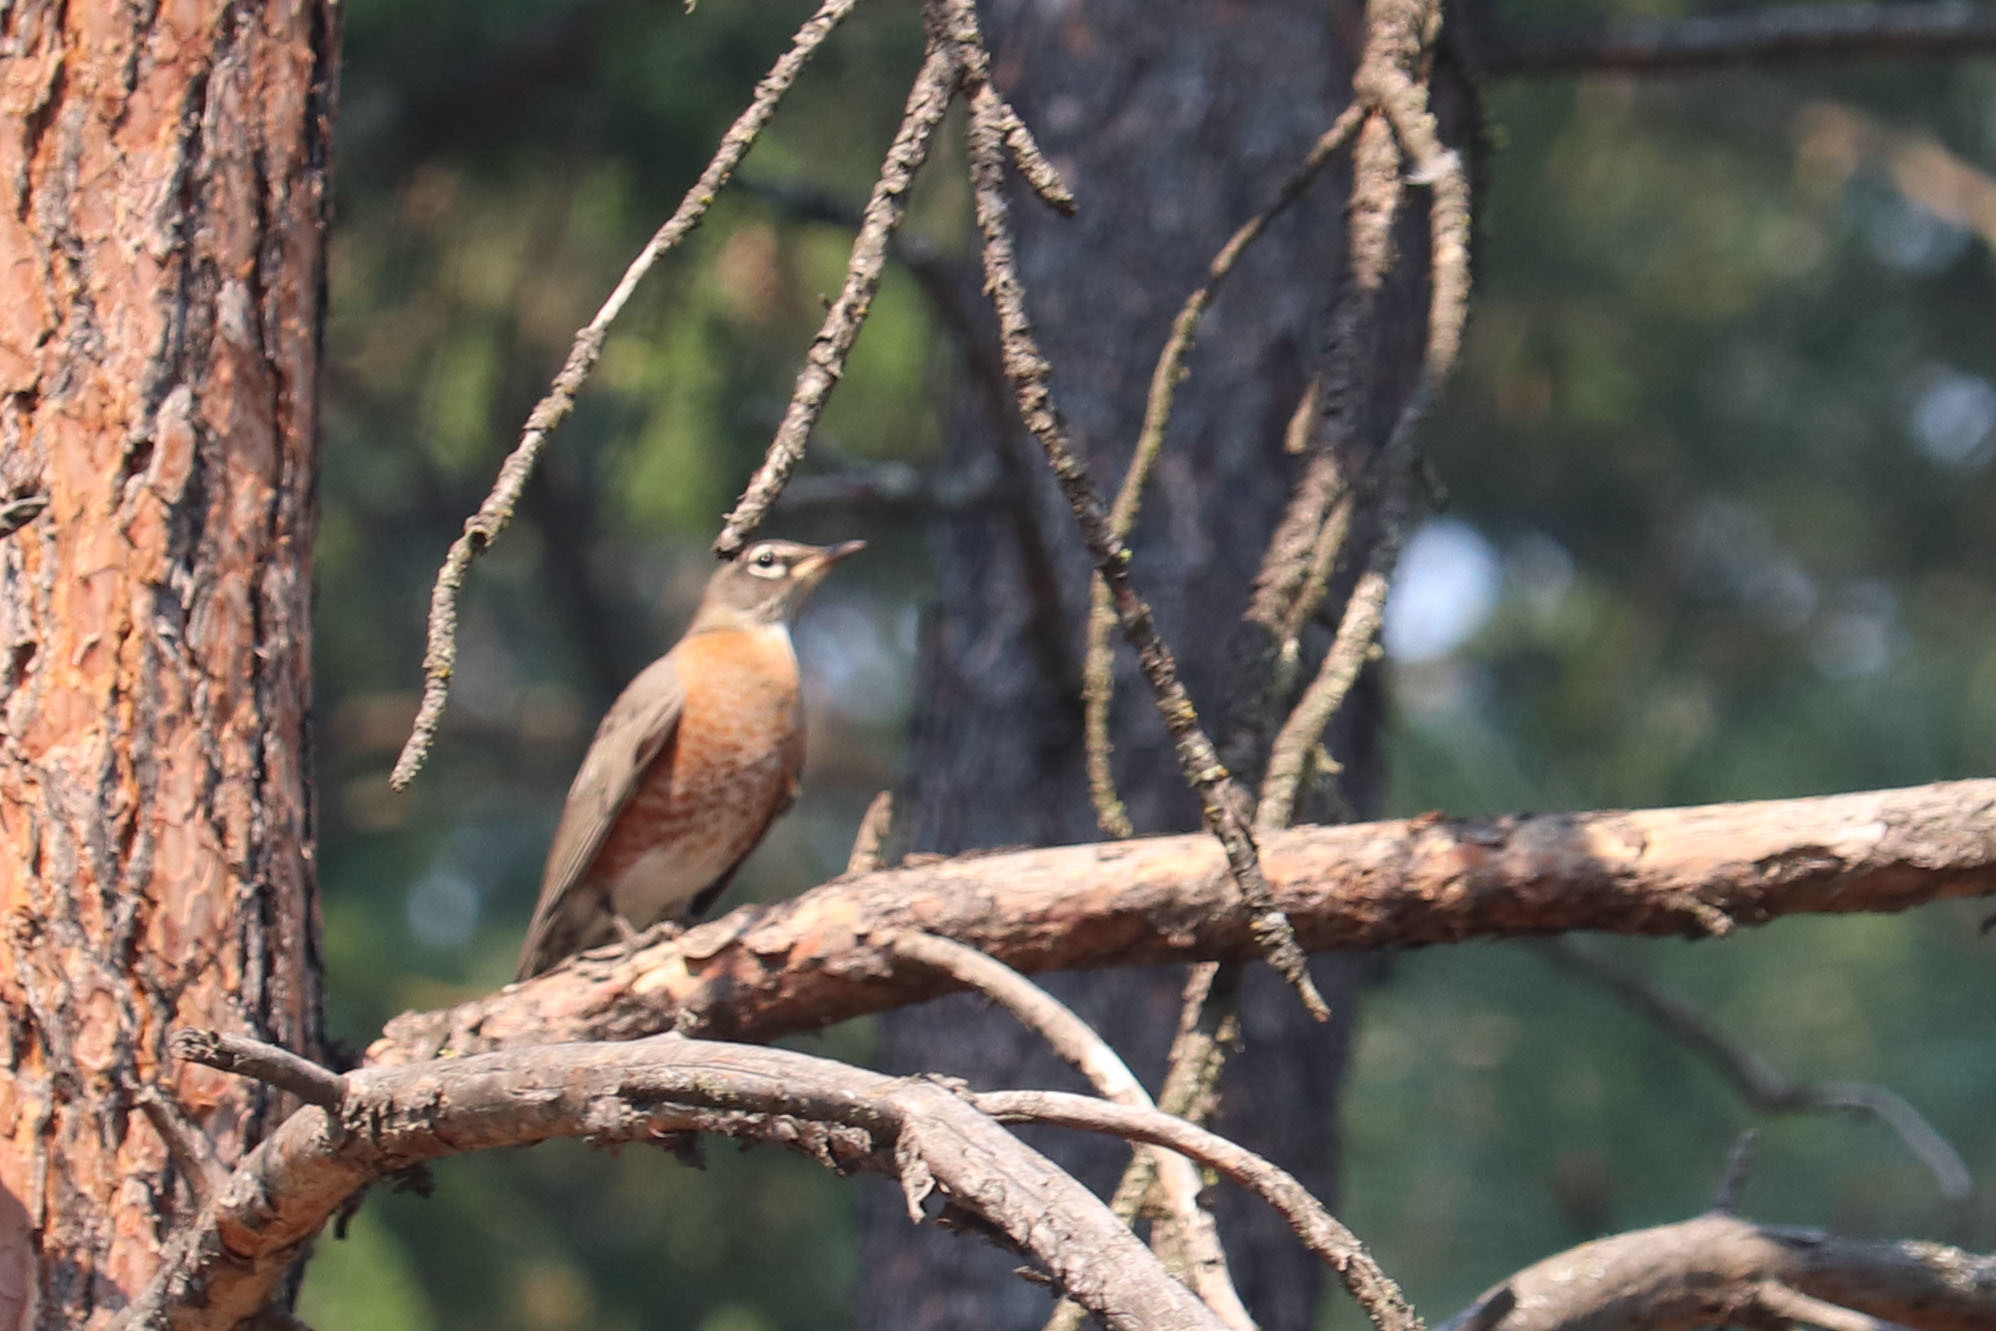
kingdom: Animalia
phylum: Chordata
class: Aves
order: Passeriformes
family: Turdidae
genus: Turdus
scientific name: Turdus migratorius
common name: American robin
